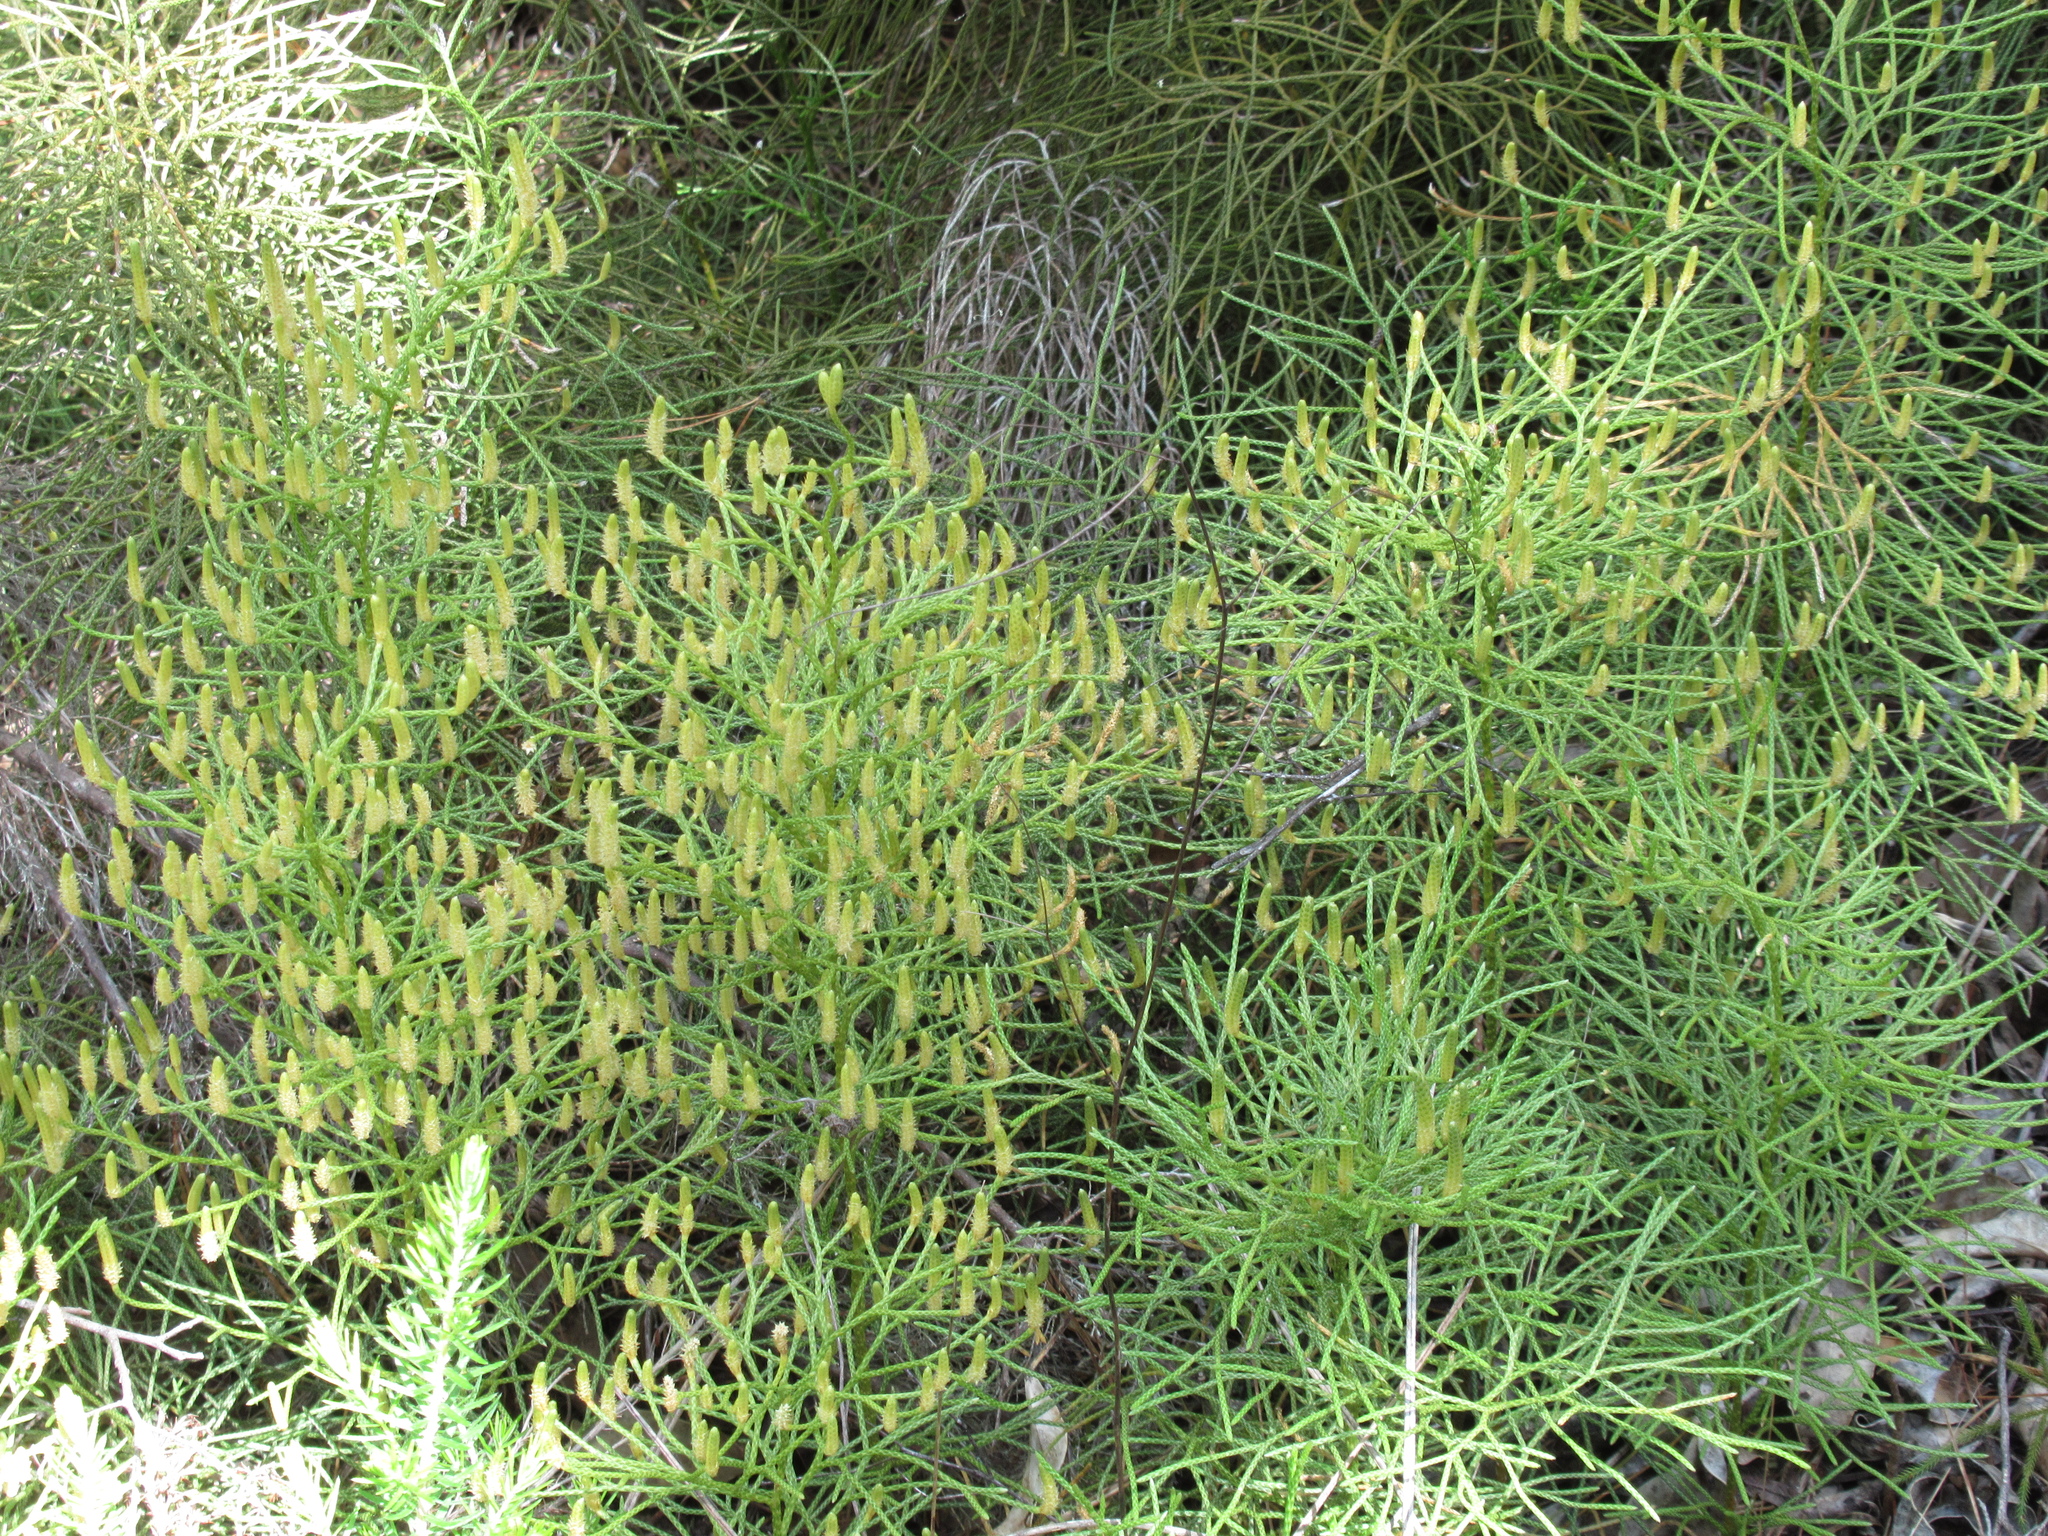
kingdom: Plantae
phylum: Tracheophyta
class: Lycopodiopsida
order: Lycopodiales
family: Lycopodiaceae
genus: Pseudolycopodium
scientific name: Pseudolycopodium densum
